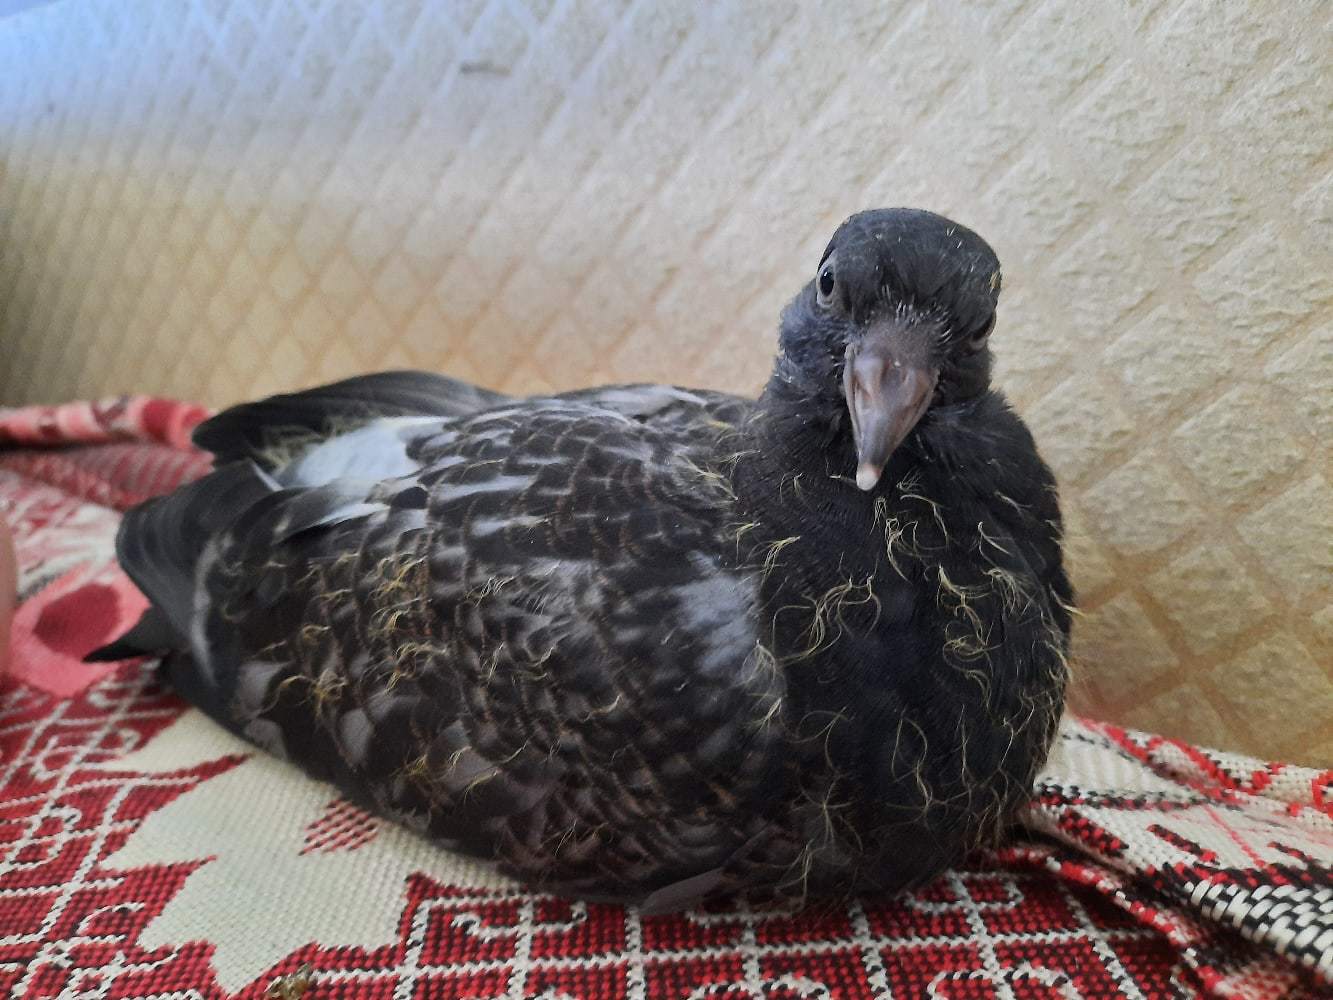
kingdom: Animalia
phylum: Chordata
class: Aves
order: Columbiformes
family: Columbidae
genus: Columba
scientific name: Columba livia
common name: Rock pigeon
